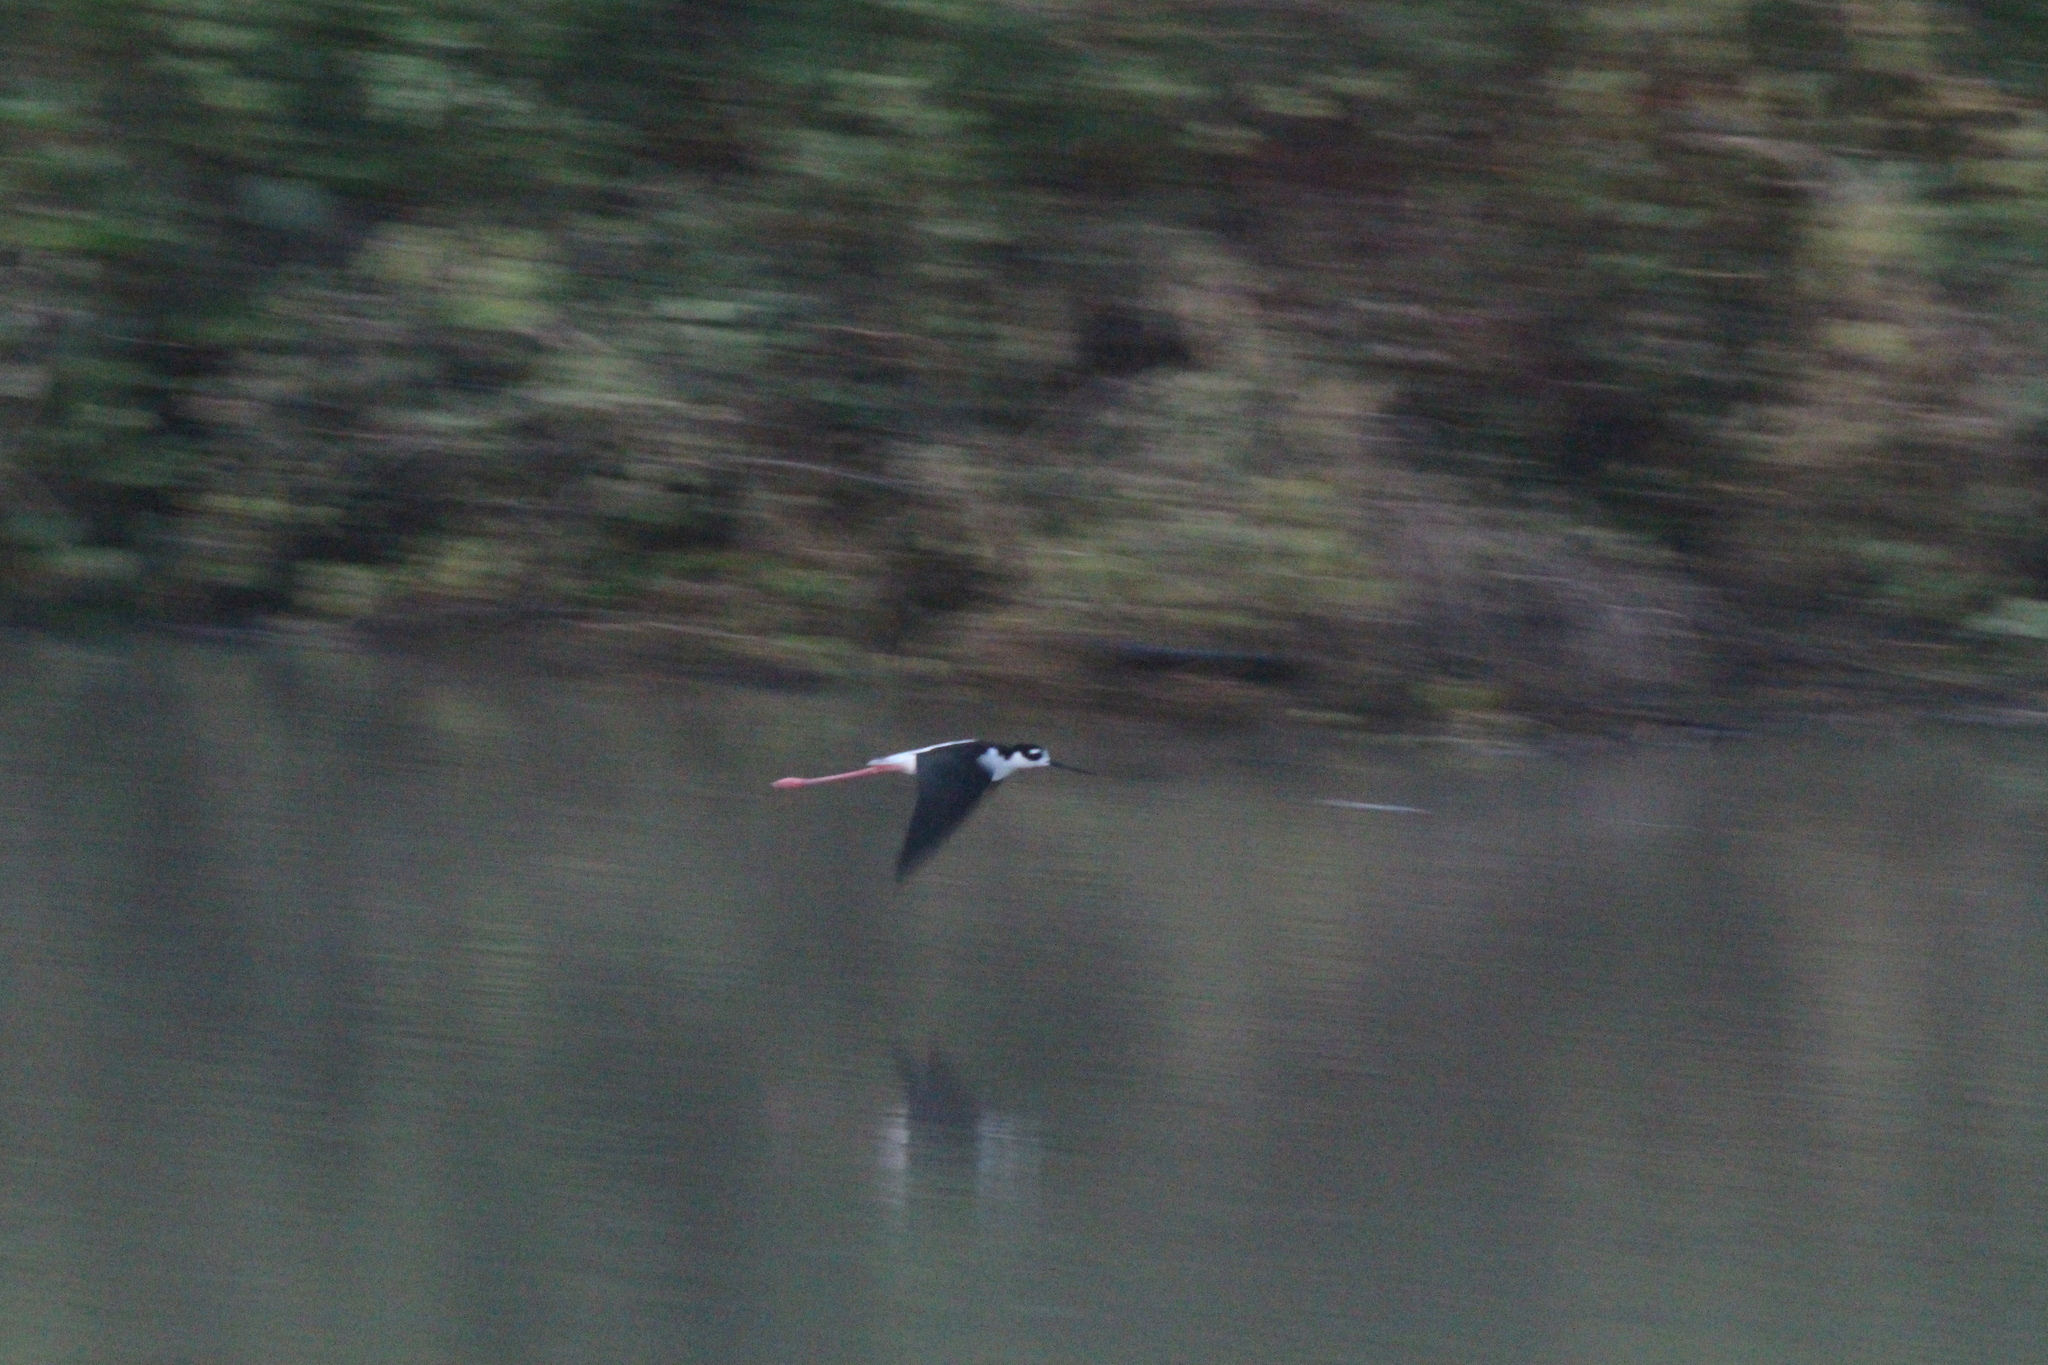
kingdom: Animalia
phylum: Chordata
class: Aves
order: Charadriiformes
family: Recurvirostridae
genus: Himantopus
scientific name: Himantopus mexicanus
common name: Black-necked stilt
